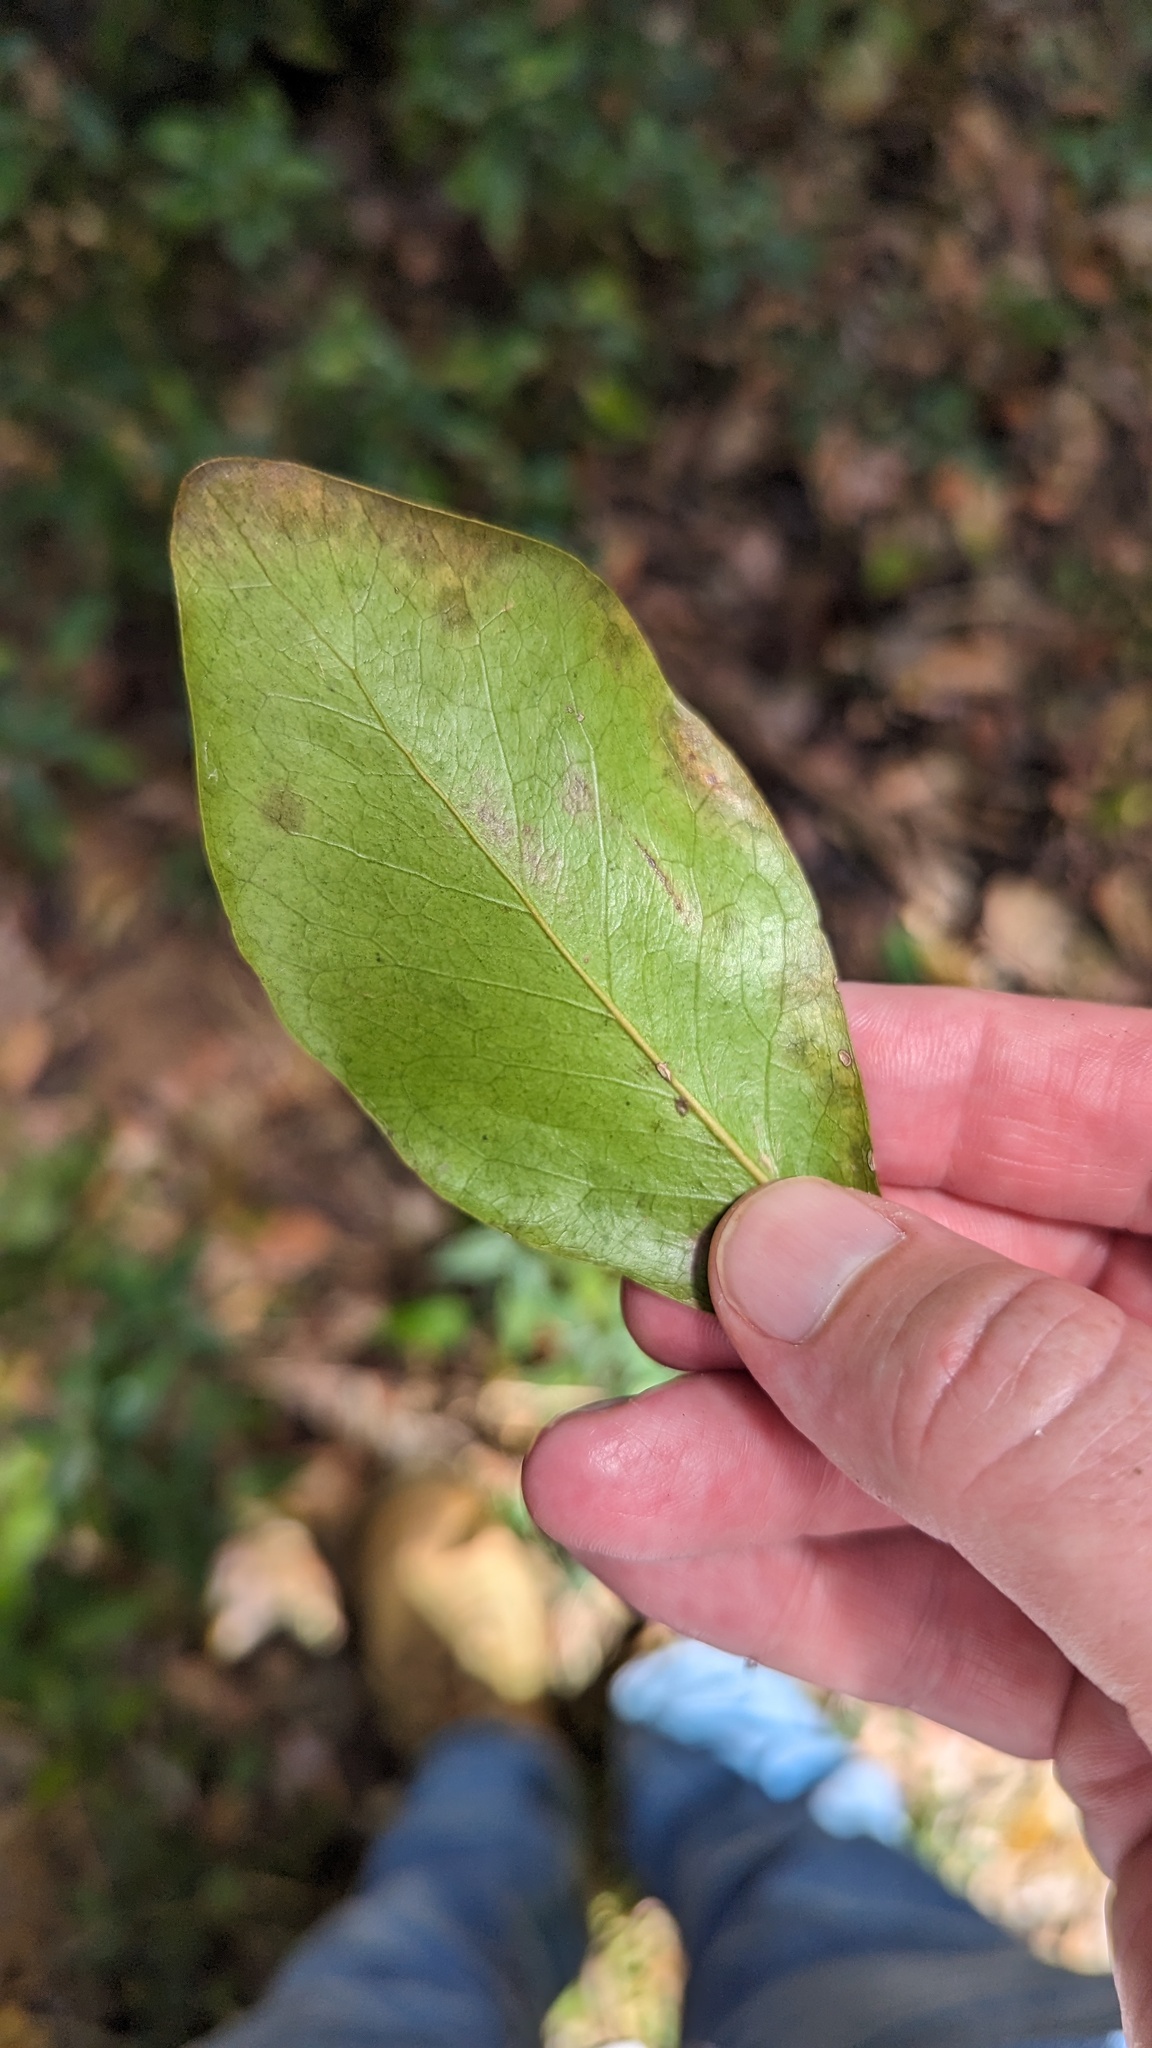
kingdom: Plantae
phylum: Tracheophyta
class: Magnoliopsida
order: Ericales
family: Sapotaceae
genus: Planchonella
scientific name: Planchonella eerwah
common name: Shiny-leaf coondoo
